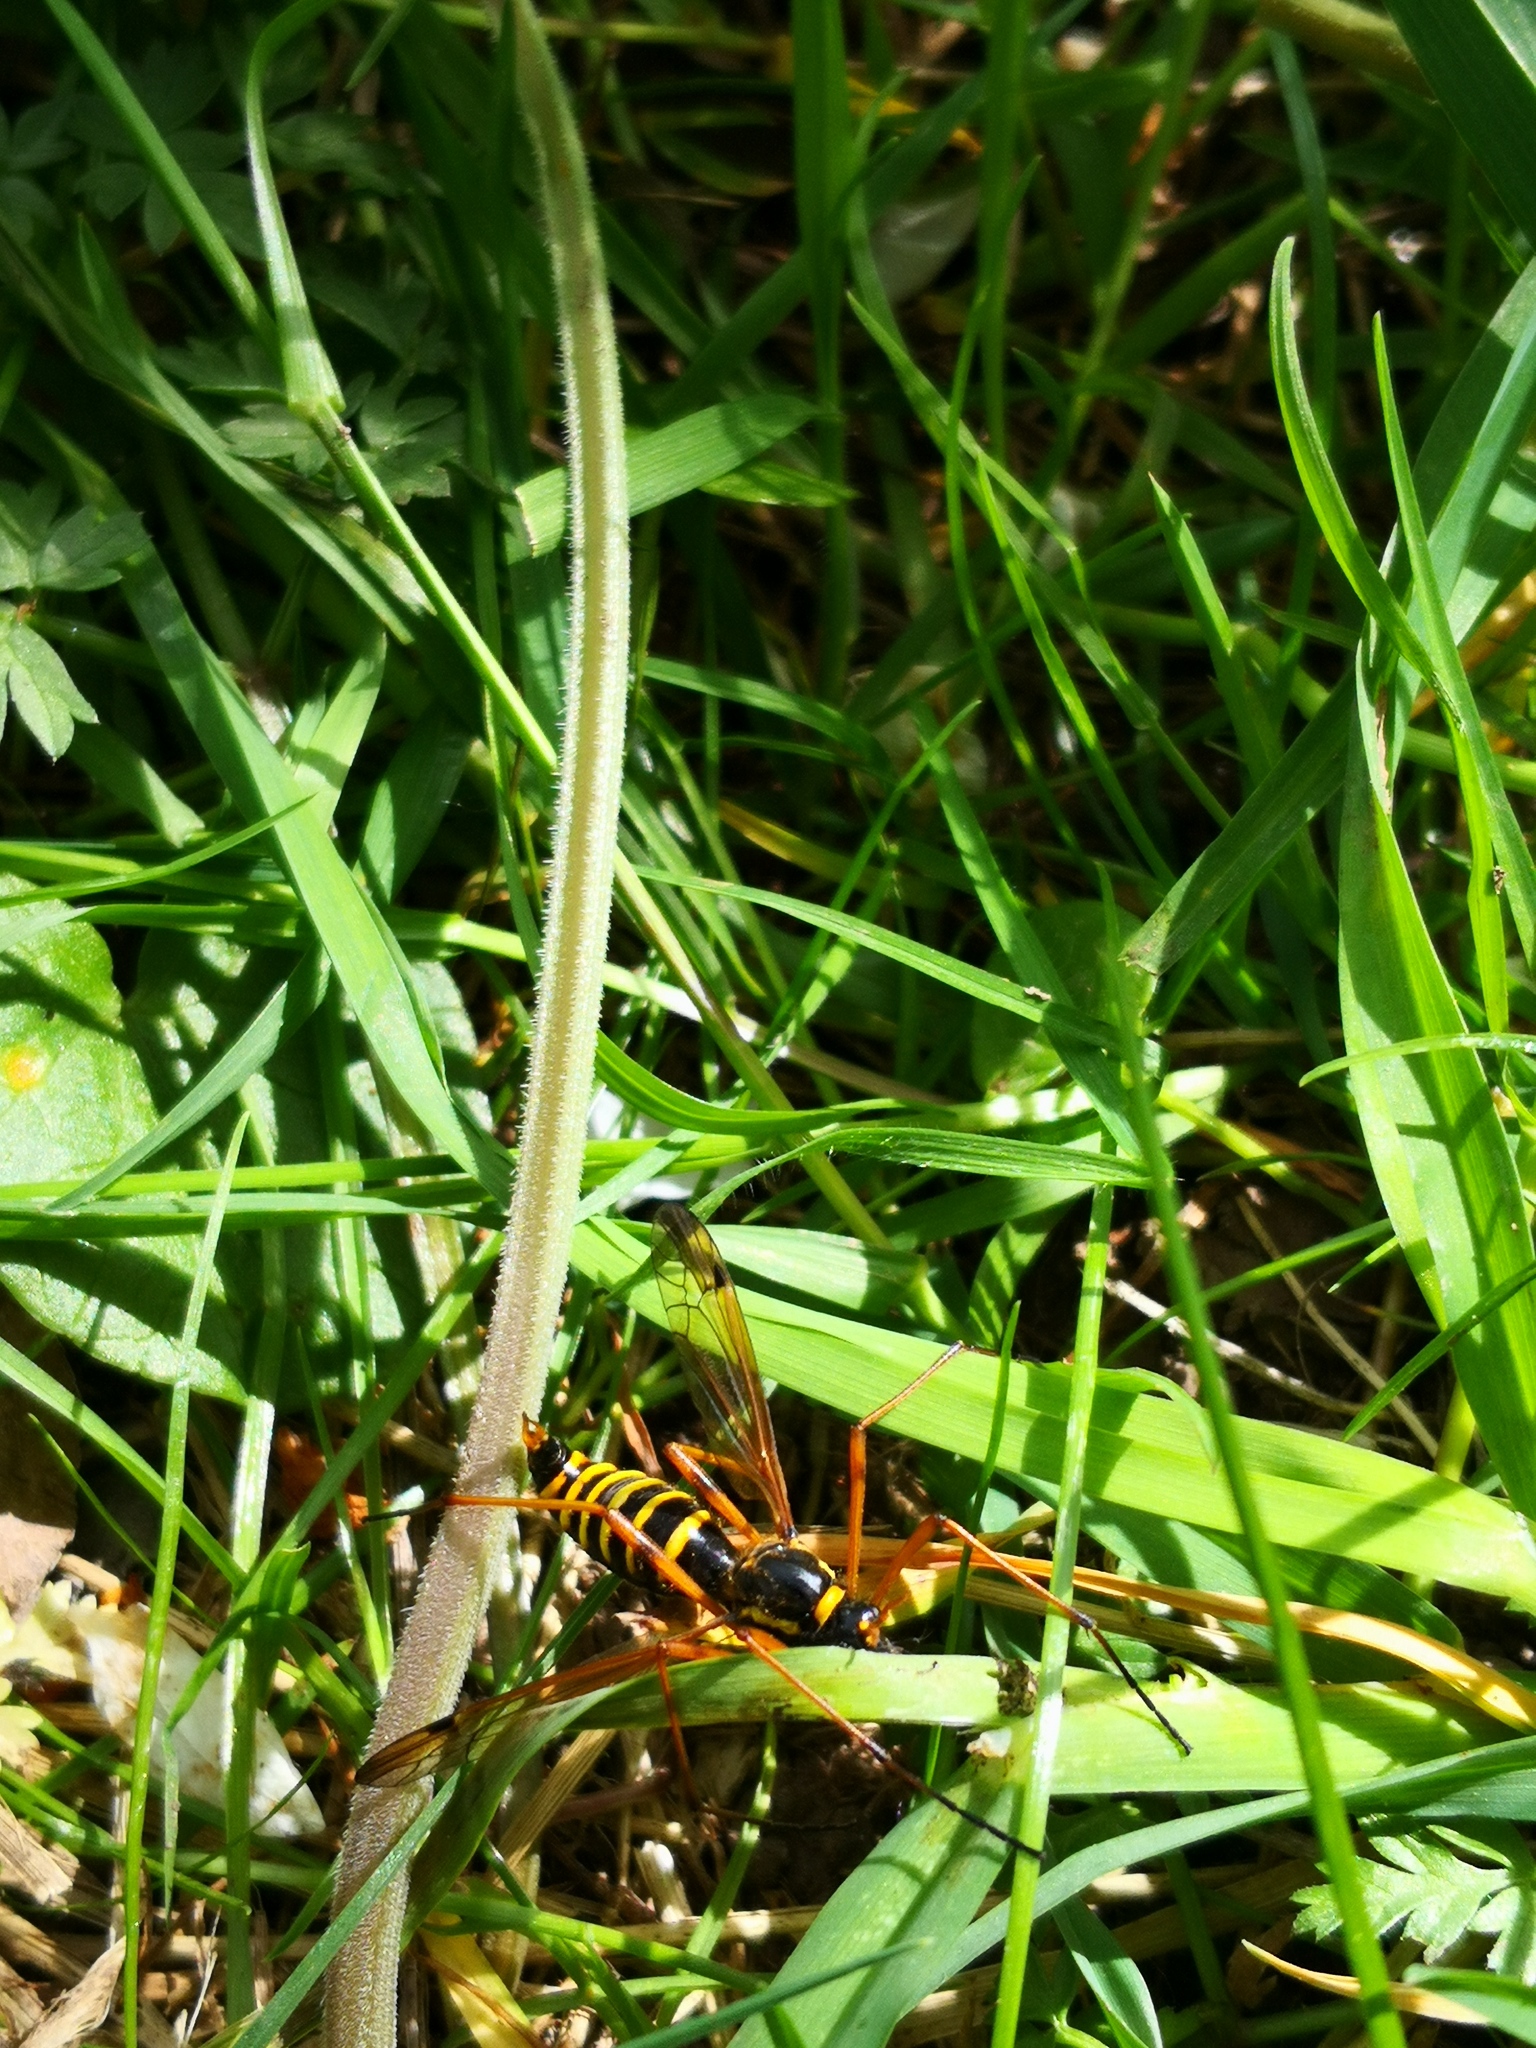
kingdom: Animalia
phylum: Arthropoda
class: Insecta
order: Diptera
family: Tipulidae
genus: Ctenophora
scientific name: Ctenophora flaveolata
